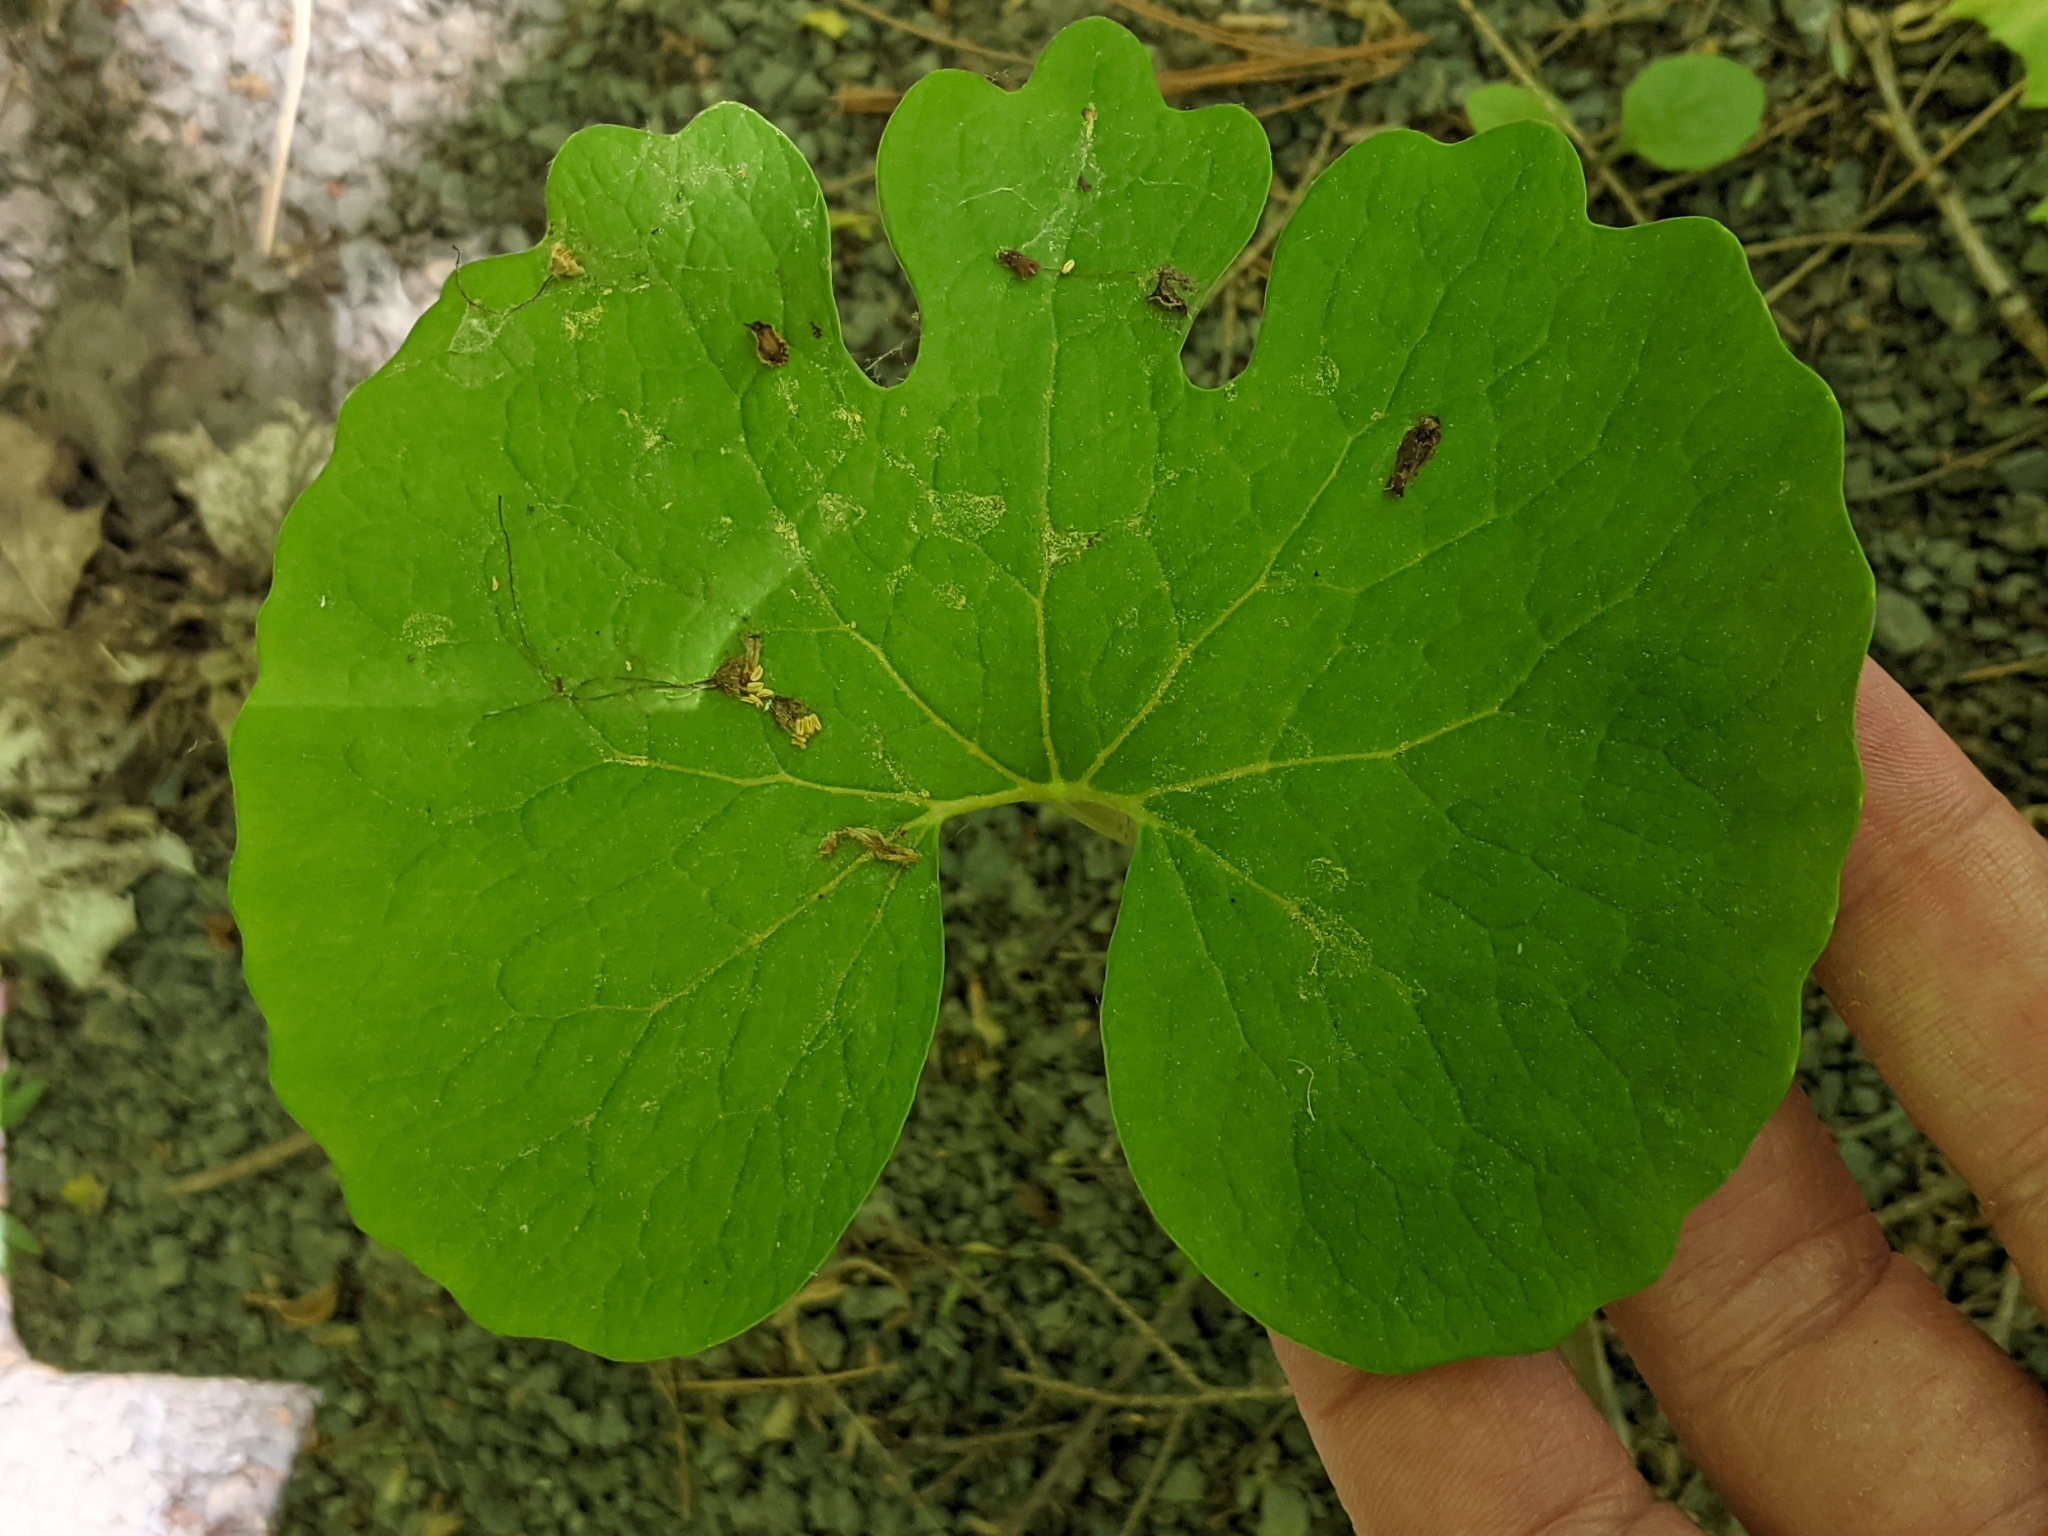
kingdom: Plantae
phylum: Tracheophyta
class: Magnoliopsida
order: Ranunculales
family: Papaveraceae
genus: Sanguinaria
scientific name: Sanguinaria canadensis
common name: Bloodroot
